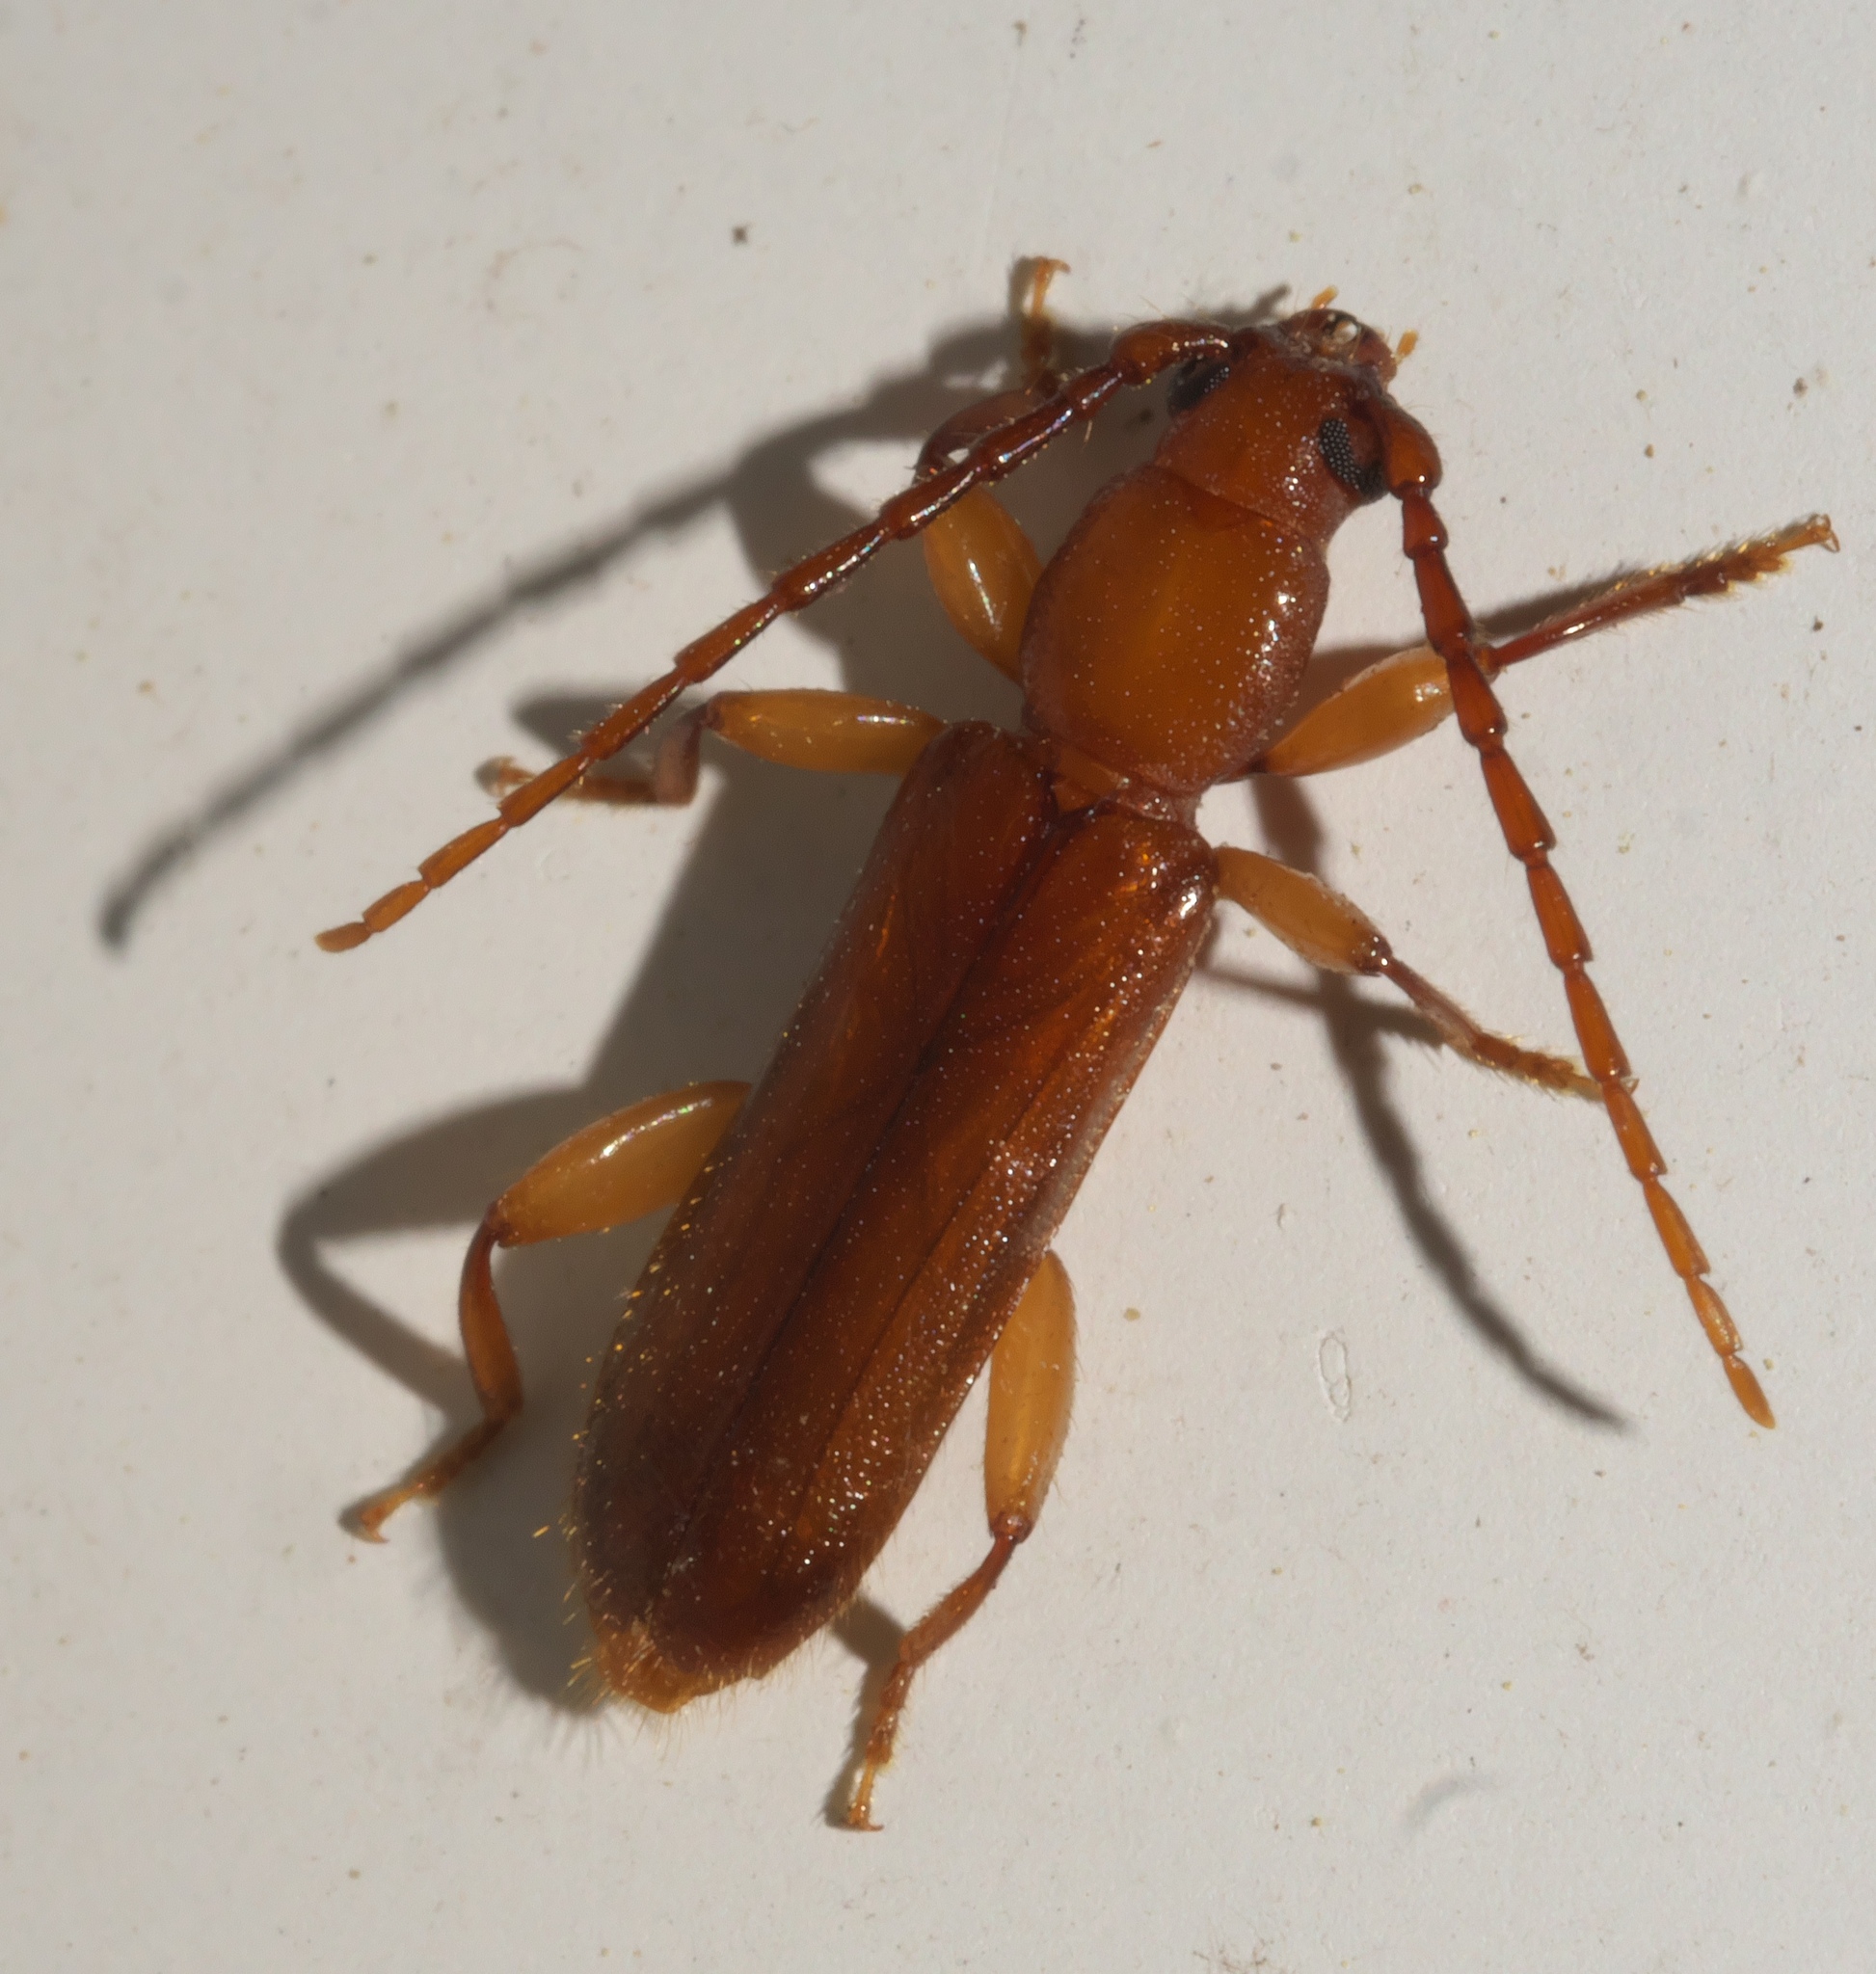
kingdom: Animalia
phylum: Arthropoda
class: Insecta
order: Coleoptera
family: Cerambycidae
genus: Smodicum
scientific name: Smodicum cucujiforme
